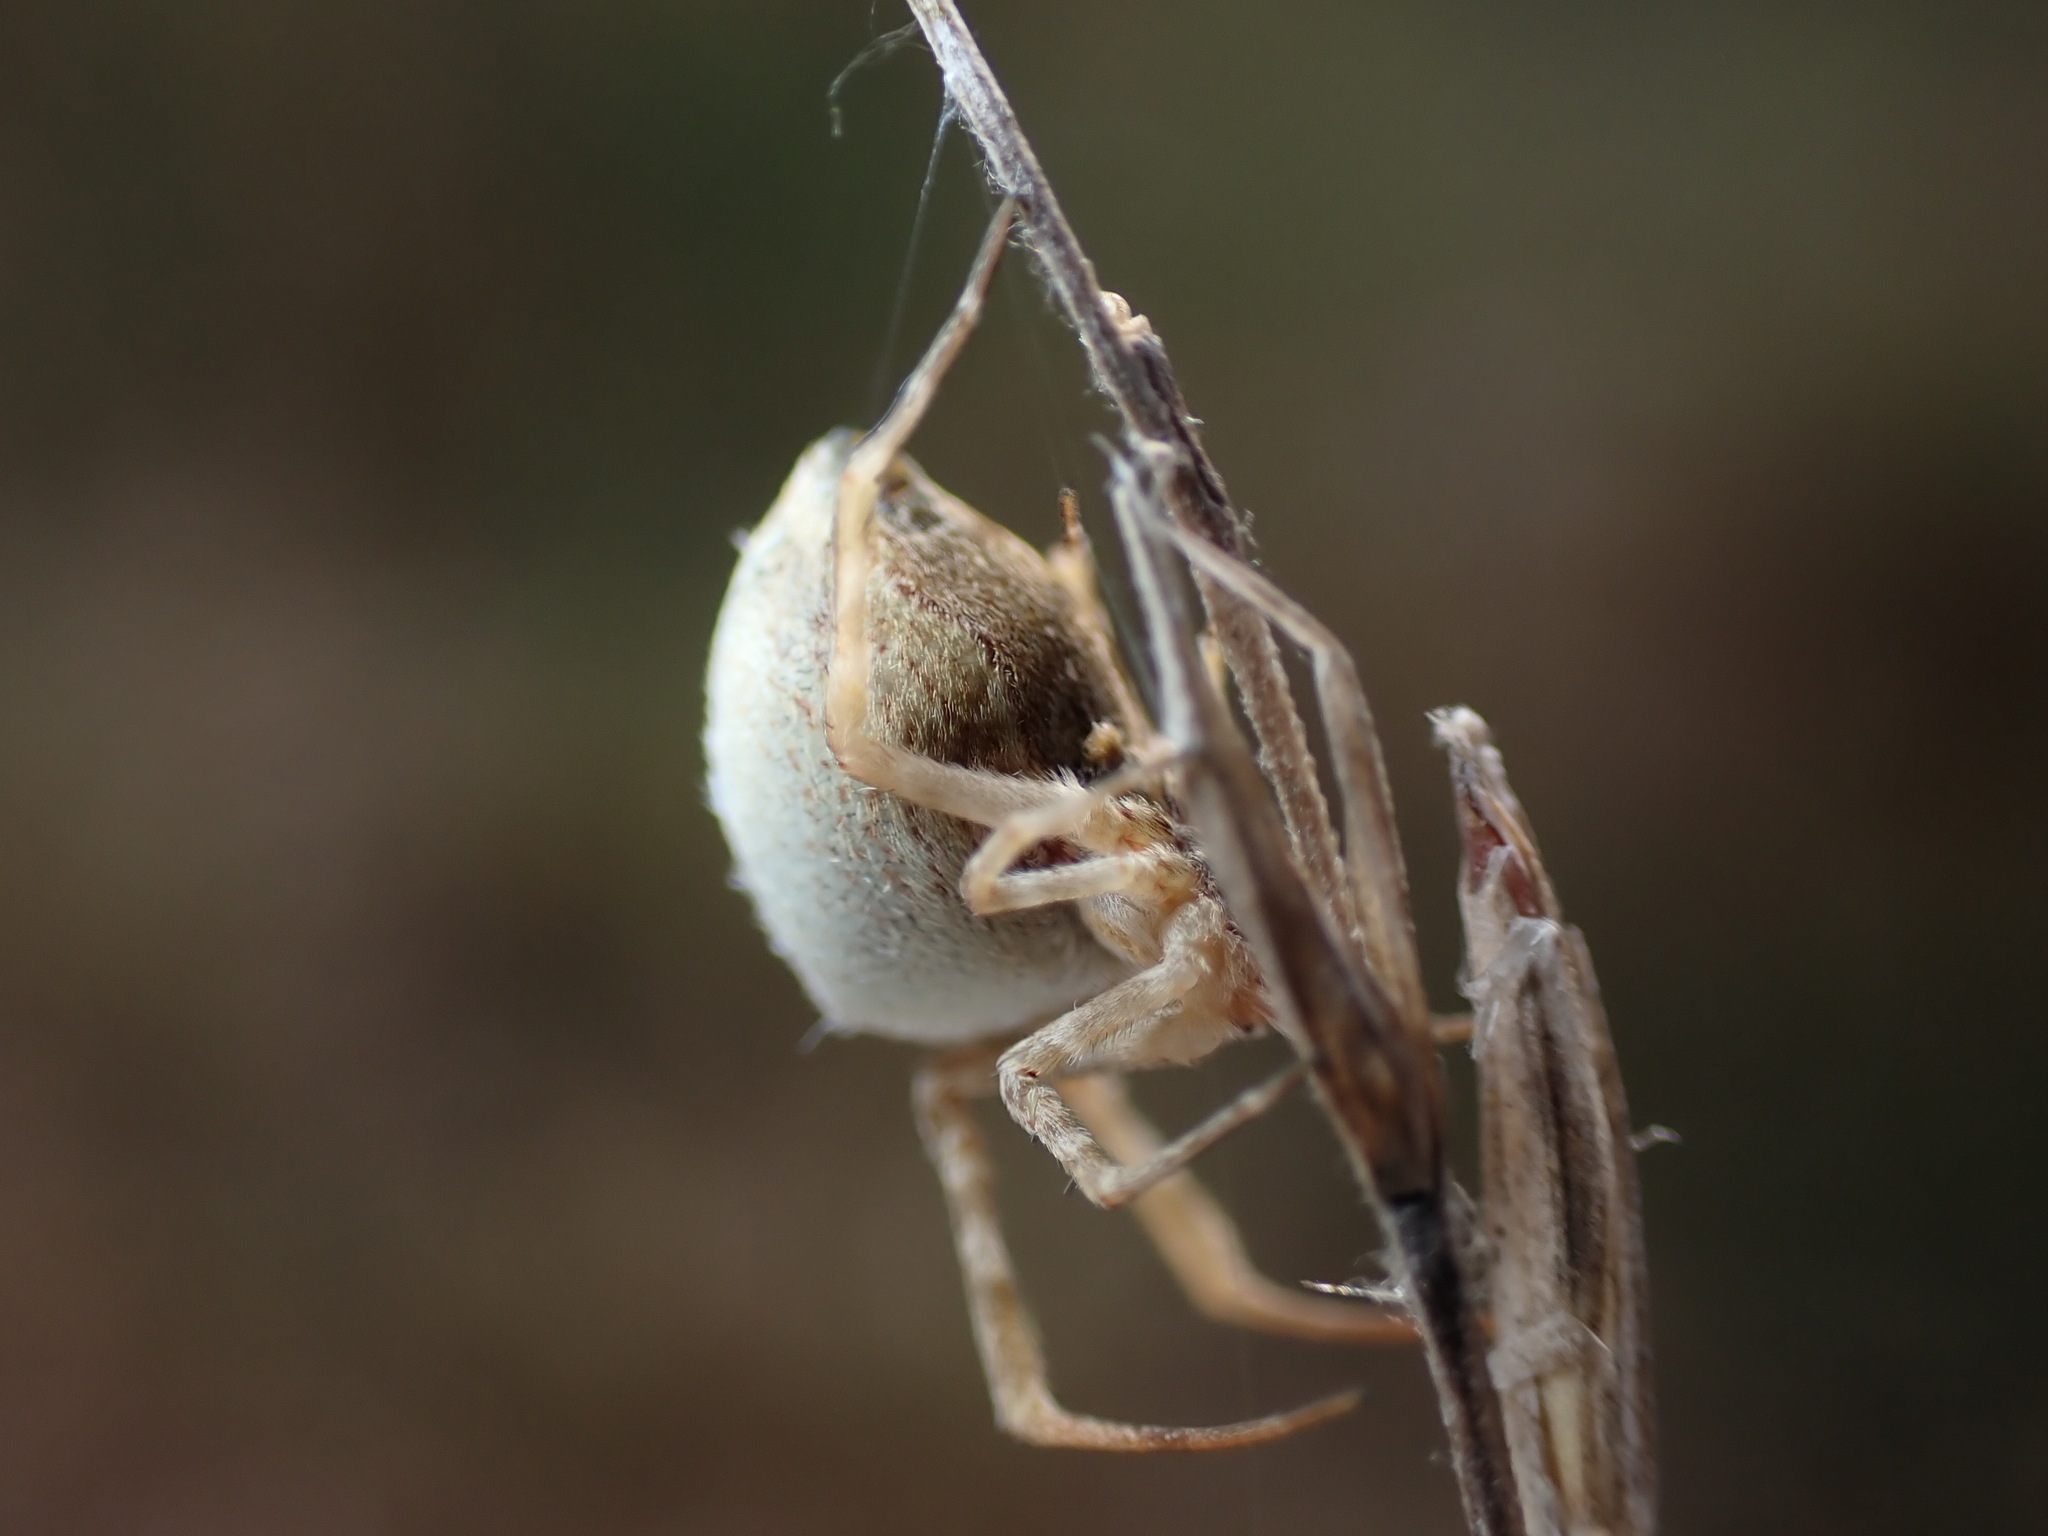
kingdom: Animalia
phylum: Arthropoda
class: Arachnida
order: Araneae
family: Uloboridae
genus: Uloborus
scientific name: Uloborus walckenaerius
